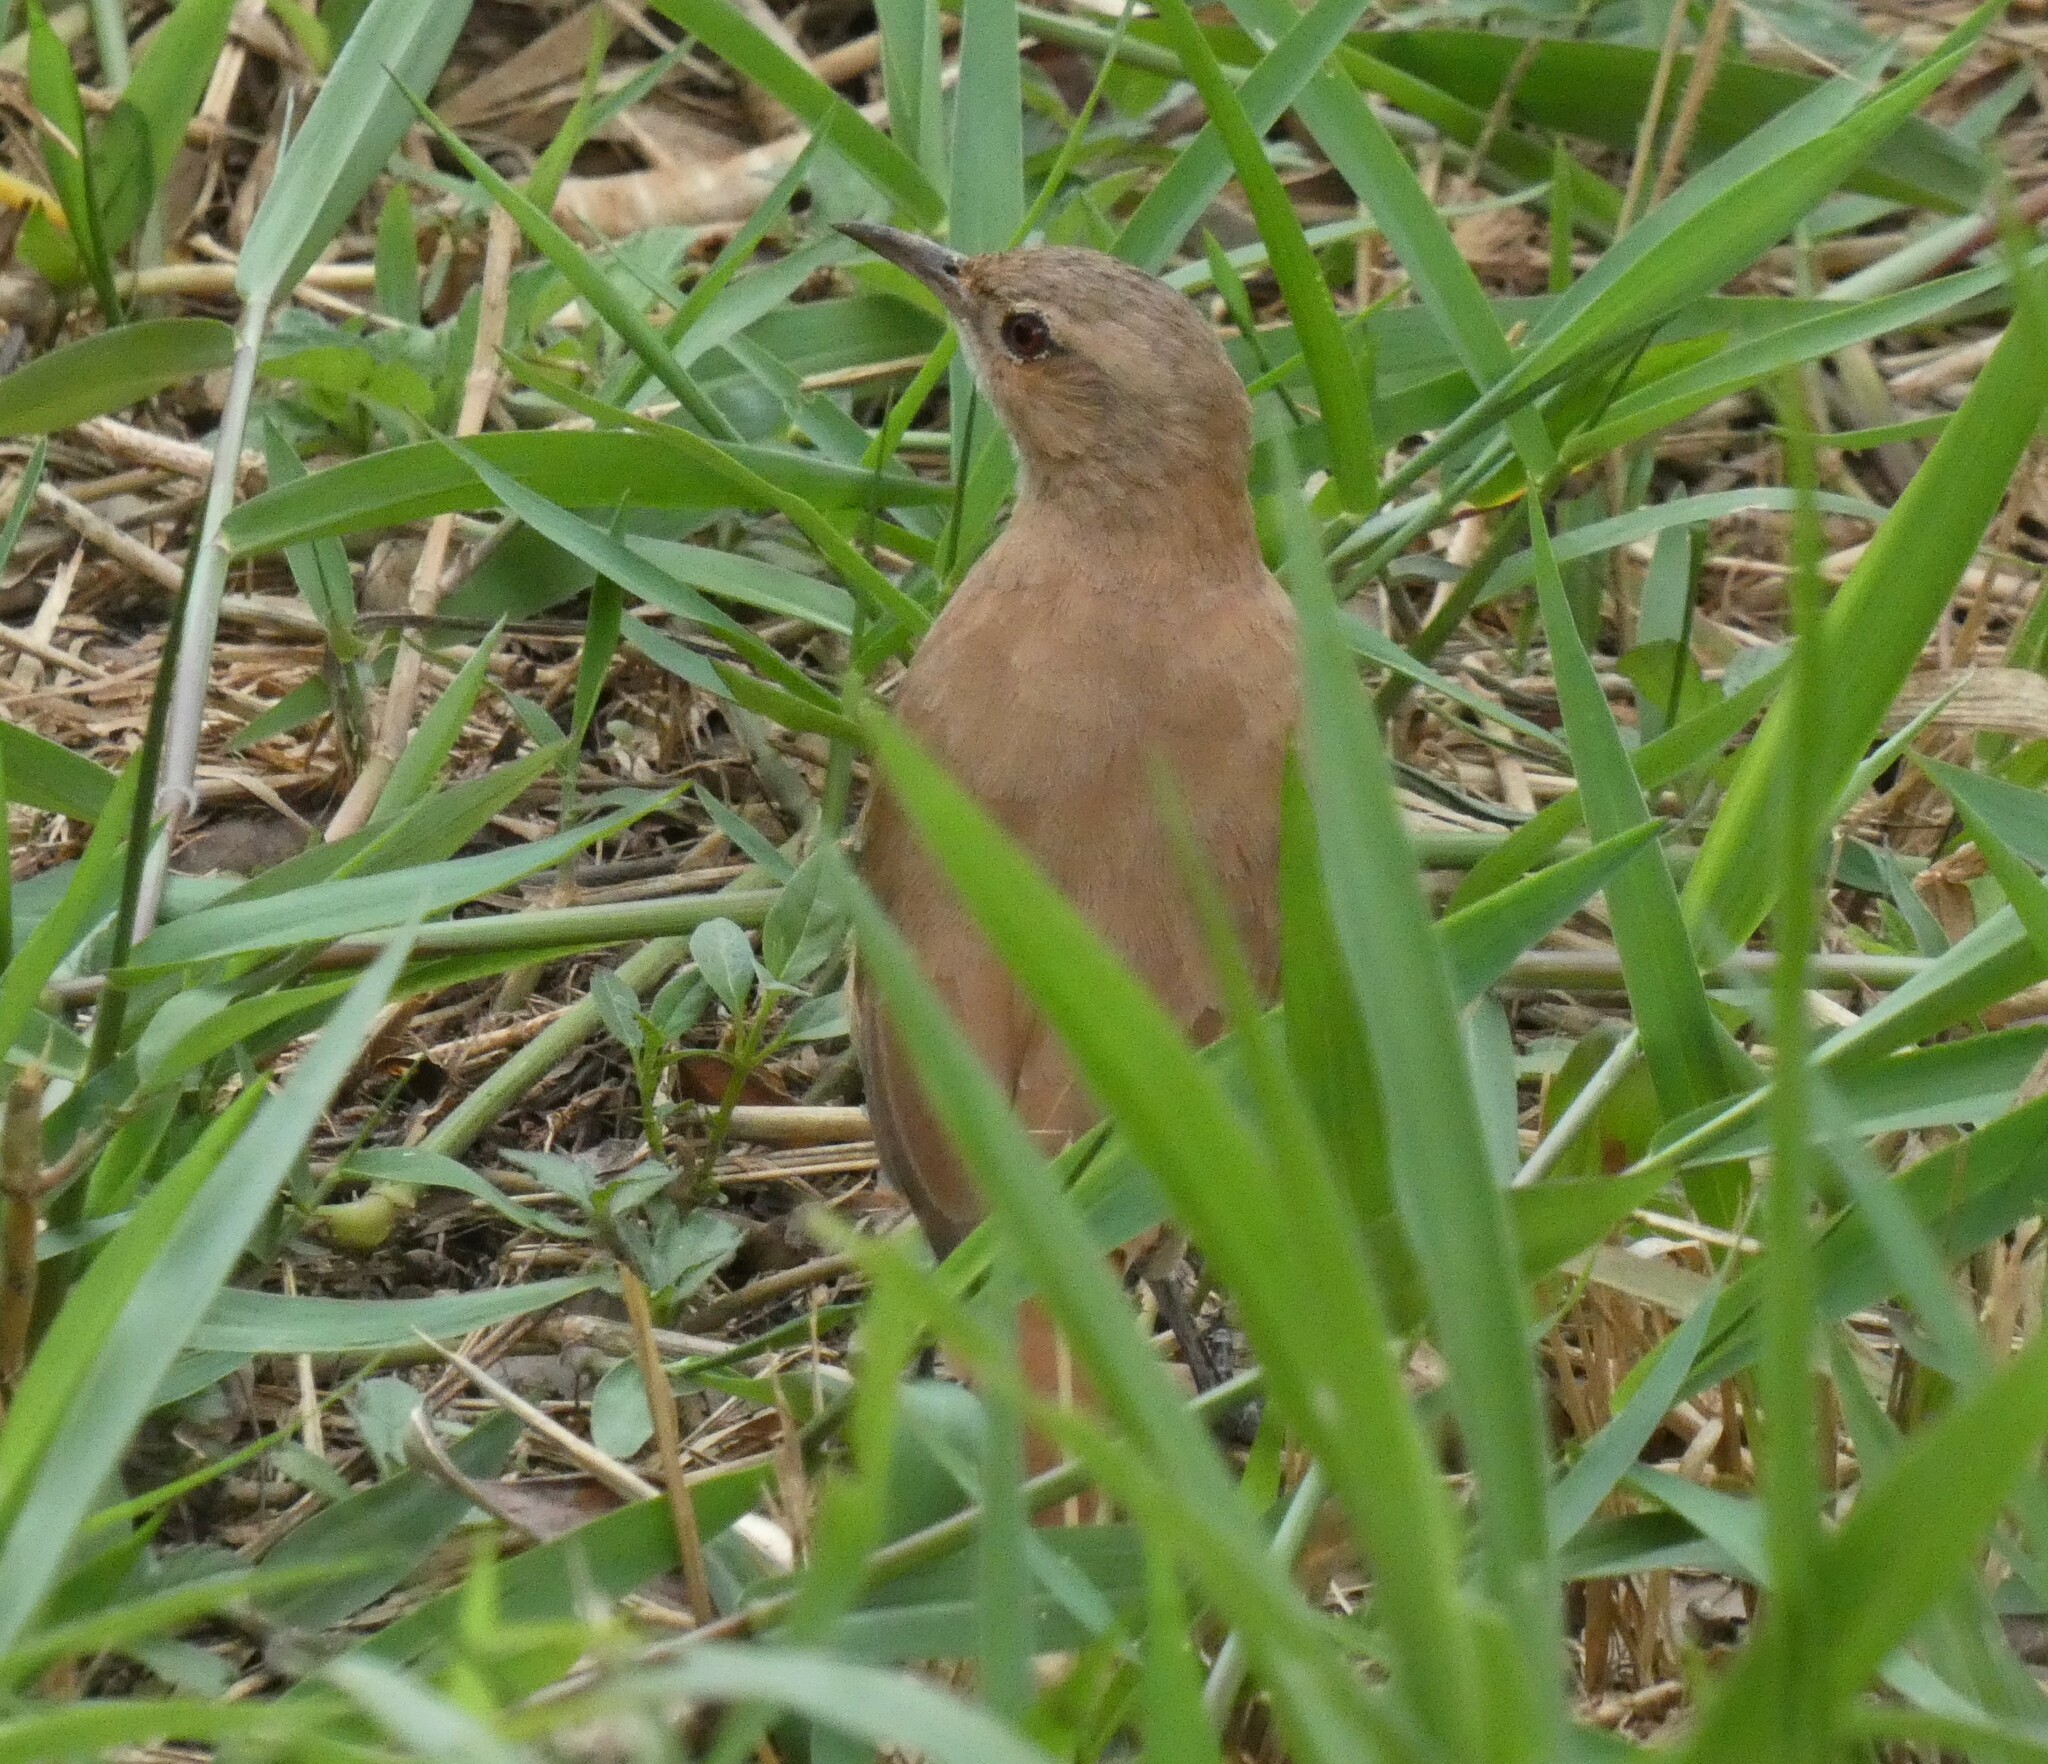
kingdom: Animalia
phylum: Chordata
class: Aves
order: Passeriformes
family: Furnariidae
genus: Furnarius
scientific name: Furnarius rufus
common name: Rufous hornero
